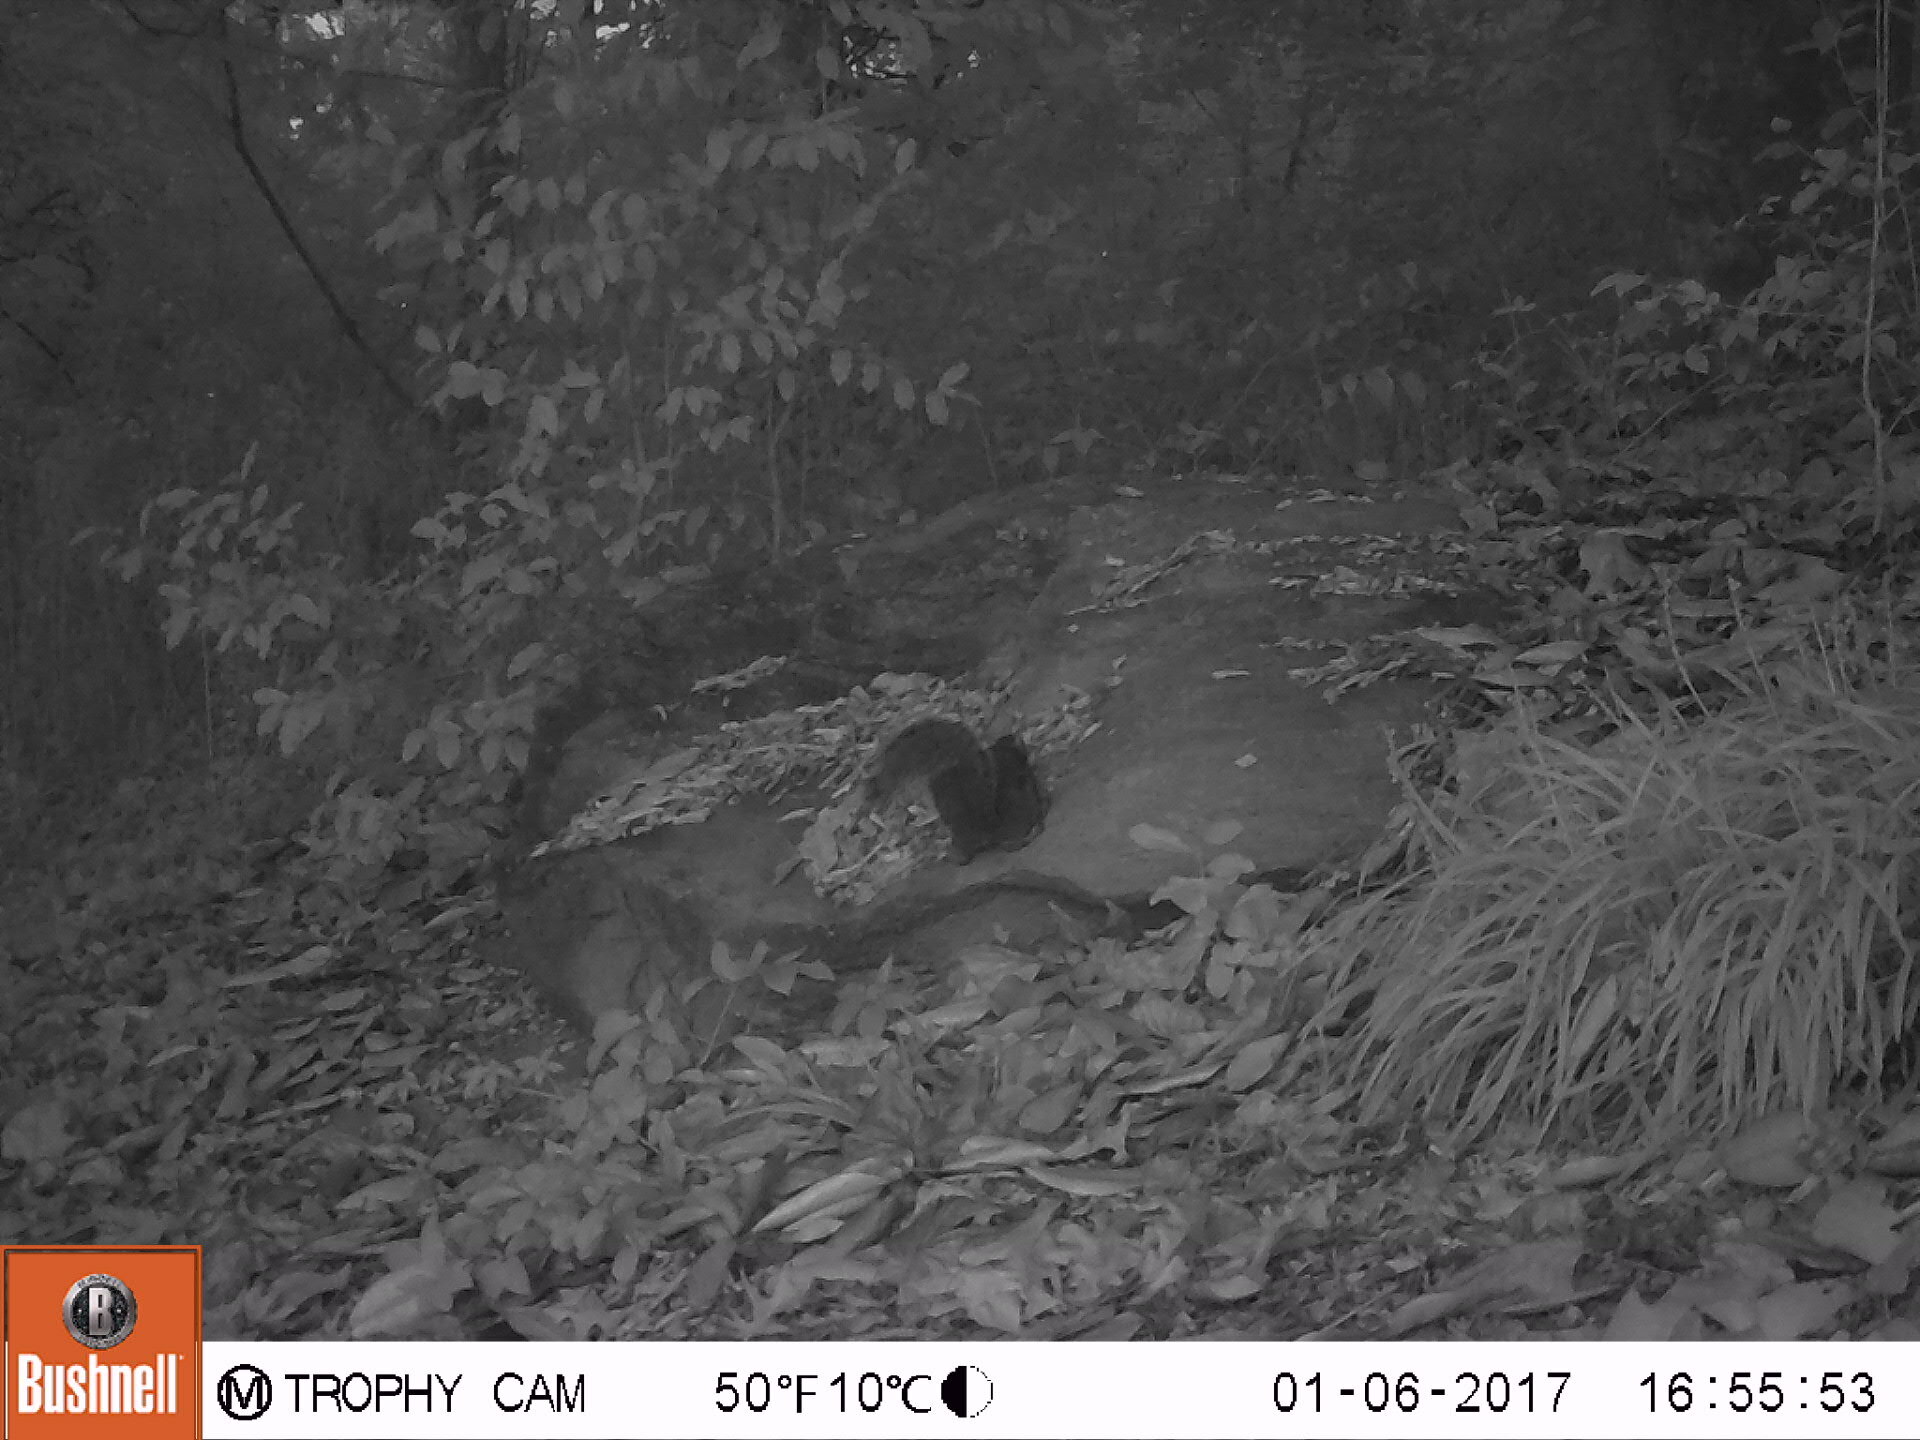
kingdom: Animalia
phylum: Chordata
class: Mammalia
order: Rodentia
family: Sciuridae
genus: Sciurus
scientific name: Sciurus carolinensis
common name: Eastern gray squirrel
